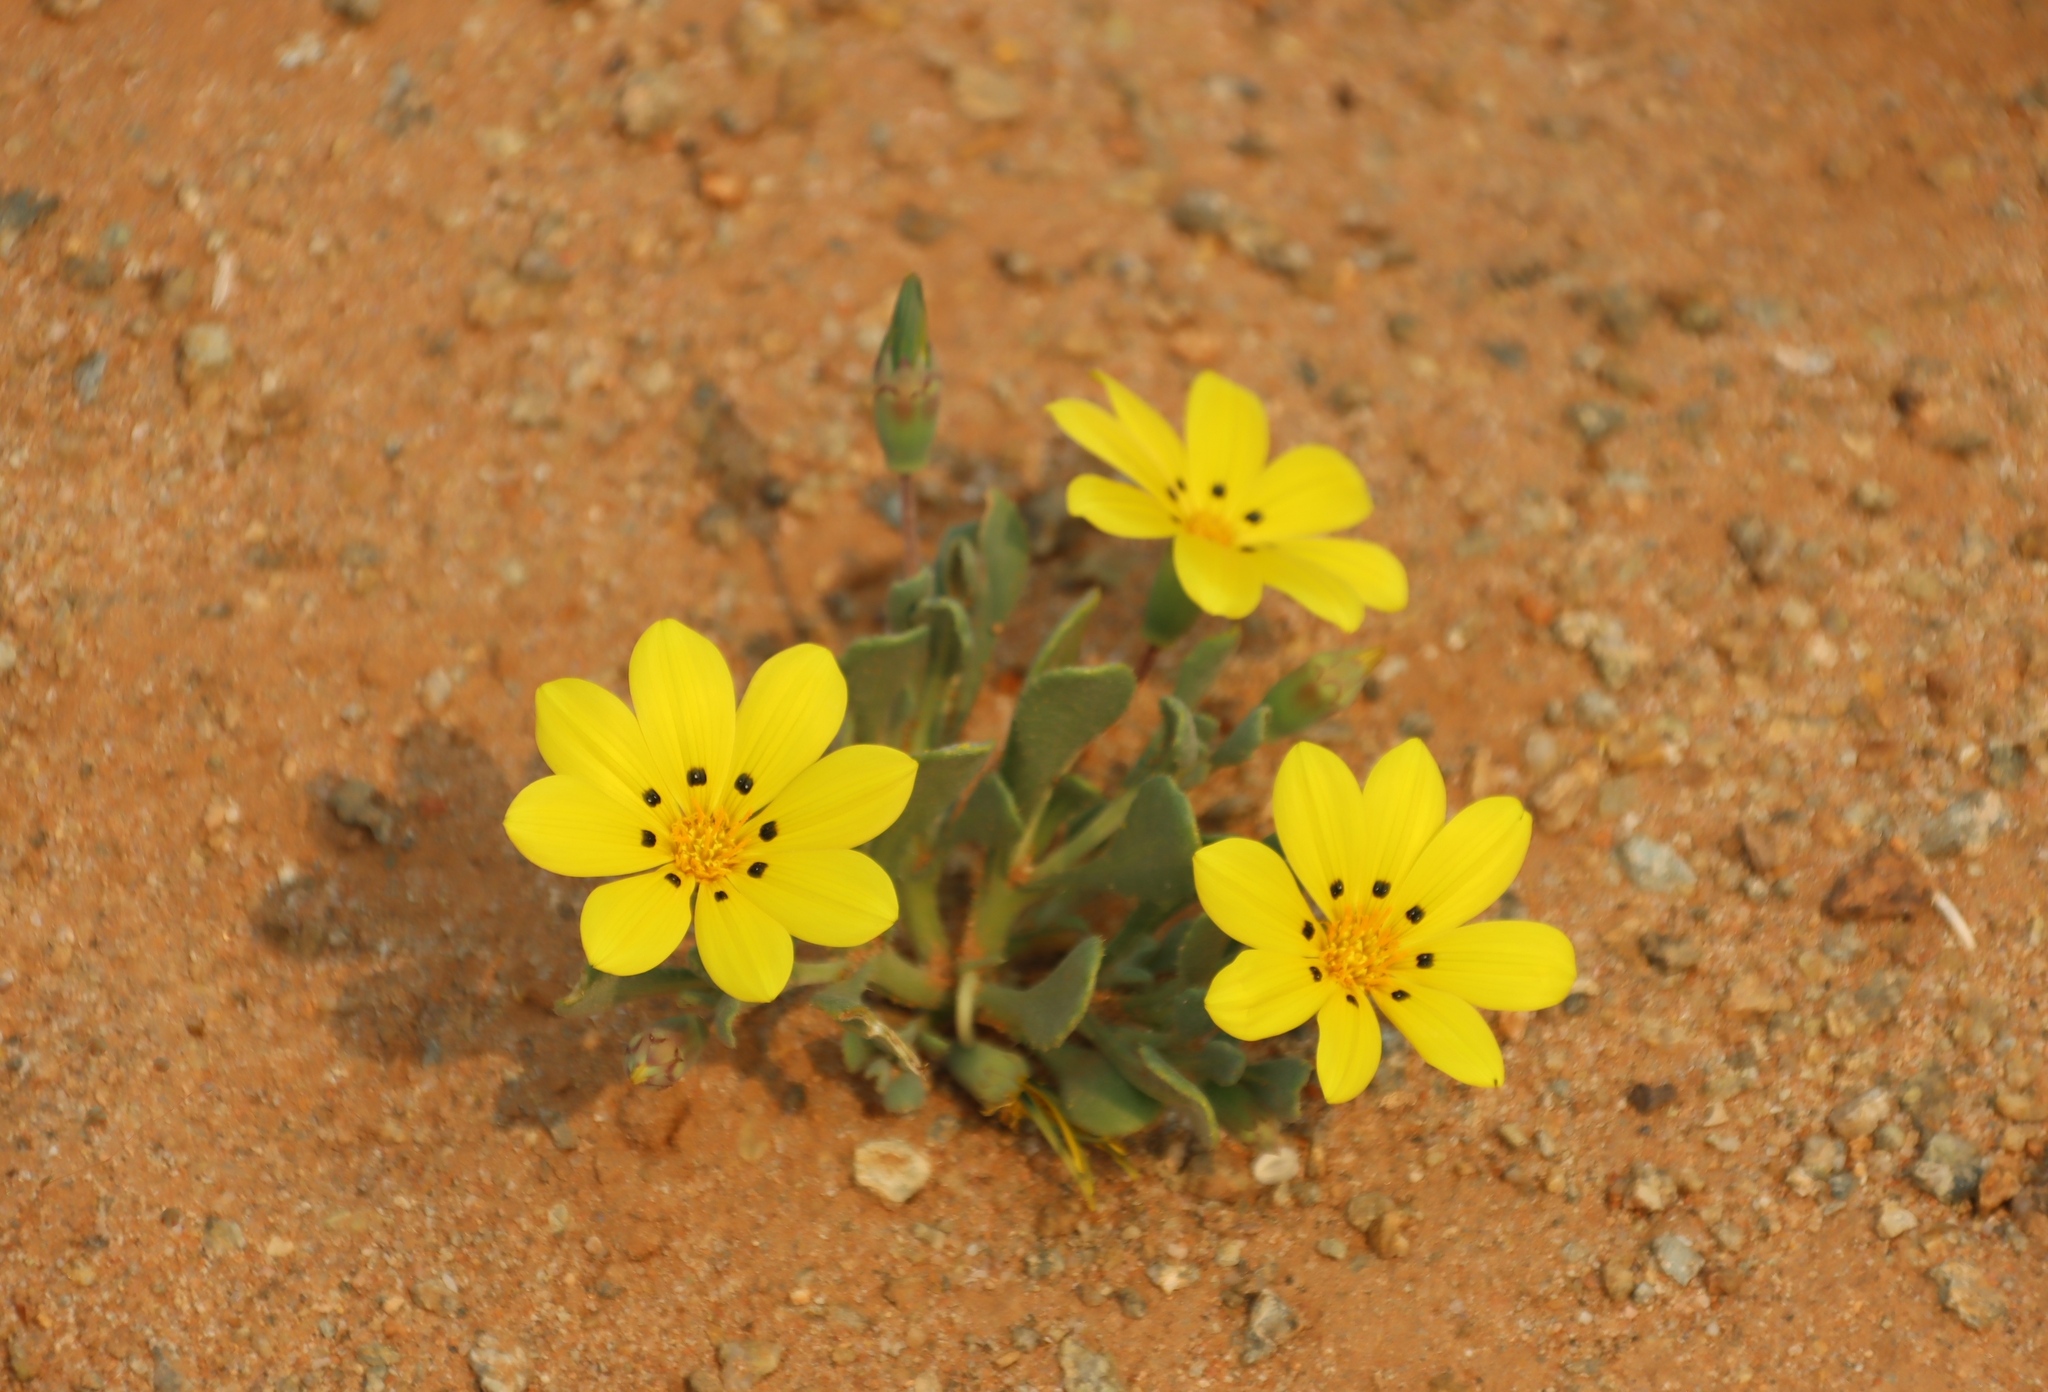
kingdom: Plantae
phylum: Tracheophyta
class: Magnoliopsida
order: Asterales
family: Asteraceae
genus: Gazania
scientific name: Gazania lichtensteinii
